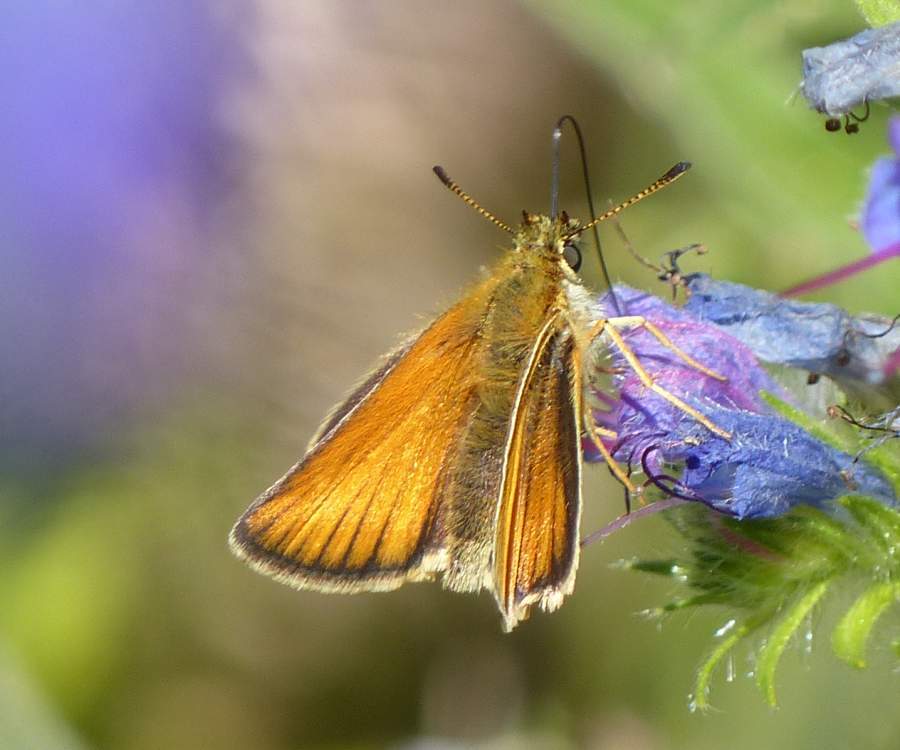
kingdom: Animalia
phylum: Arthropoda
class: Insecta
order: Lepidoptera
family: Hesperiidae
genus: Thymelicus
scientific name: Thymelicus lineola
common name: Essex skipper
